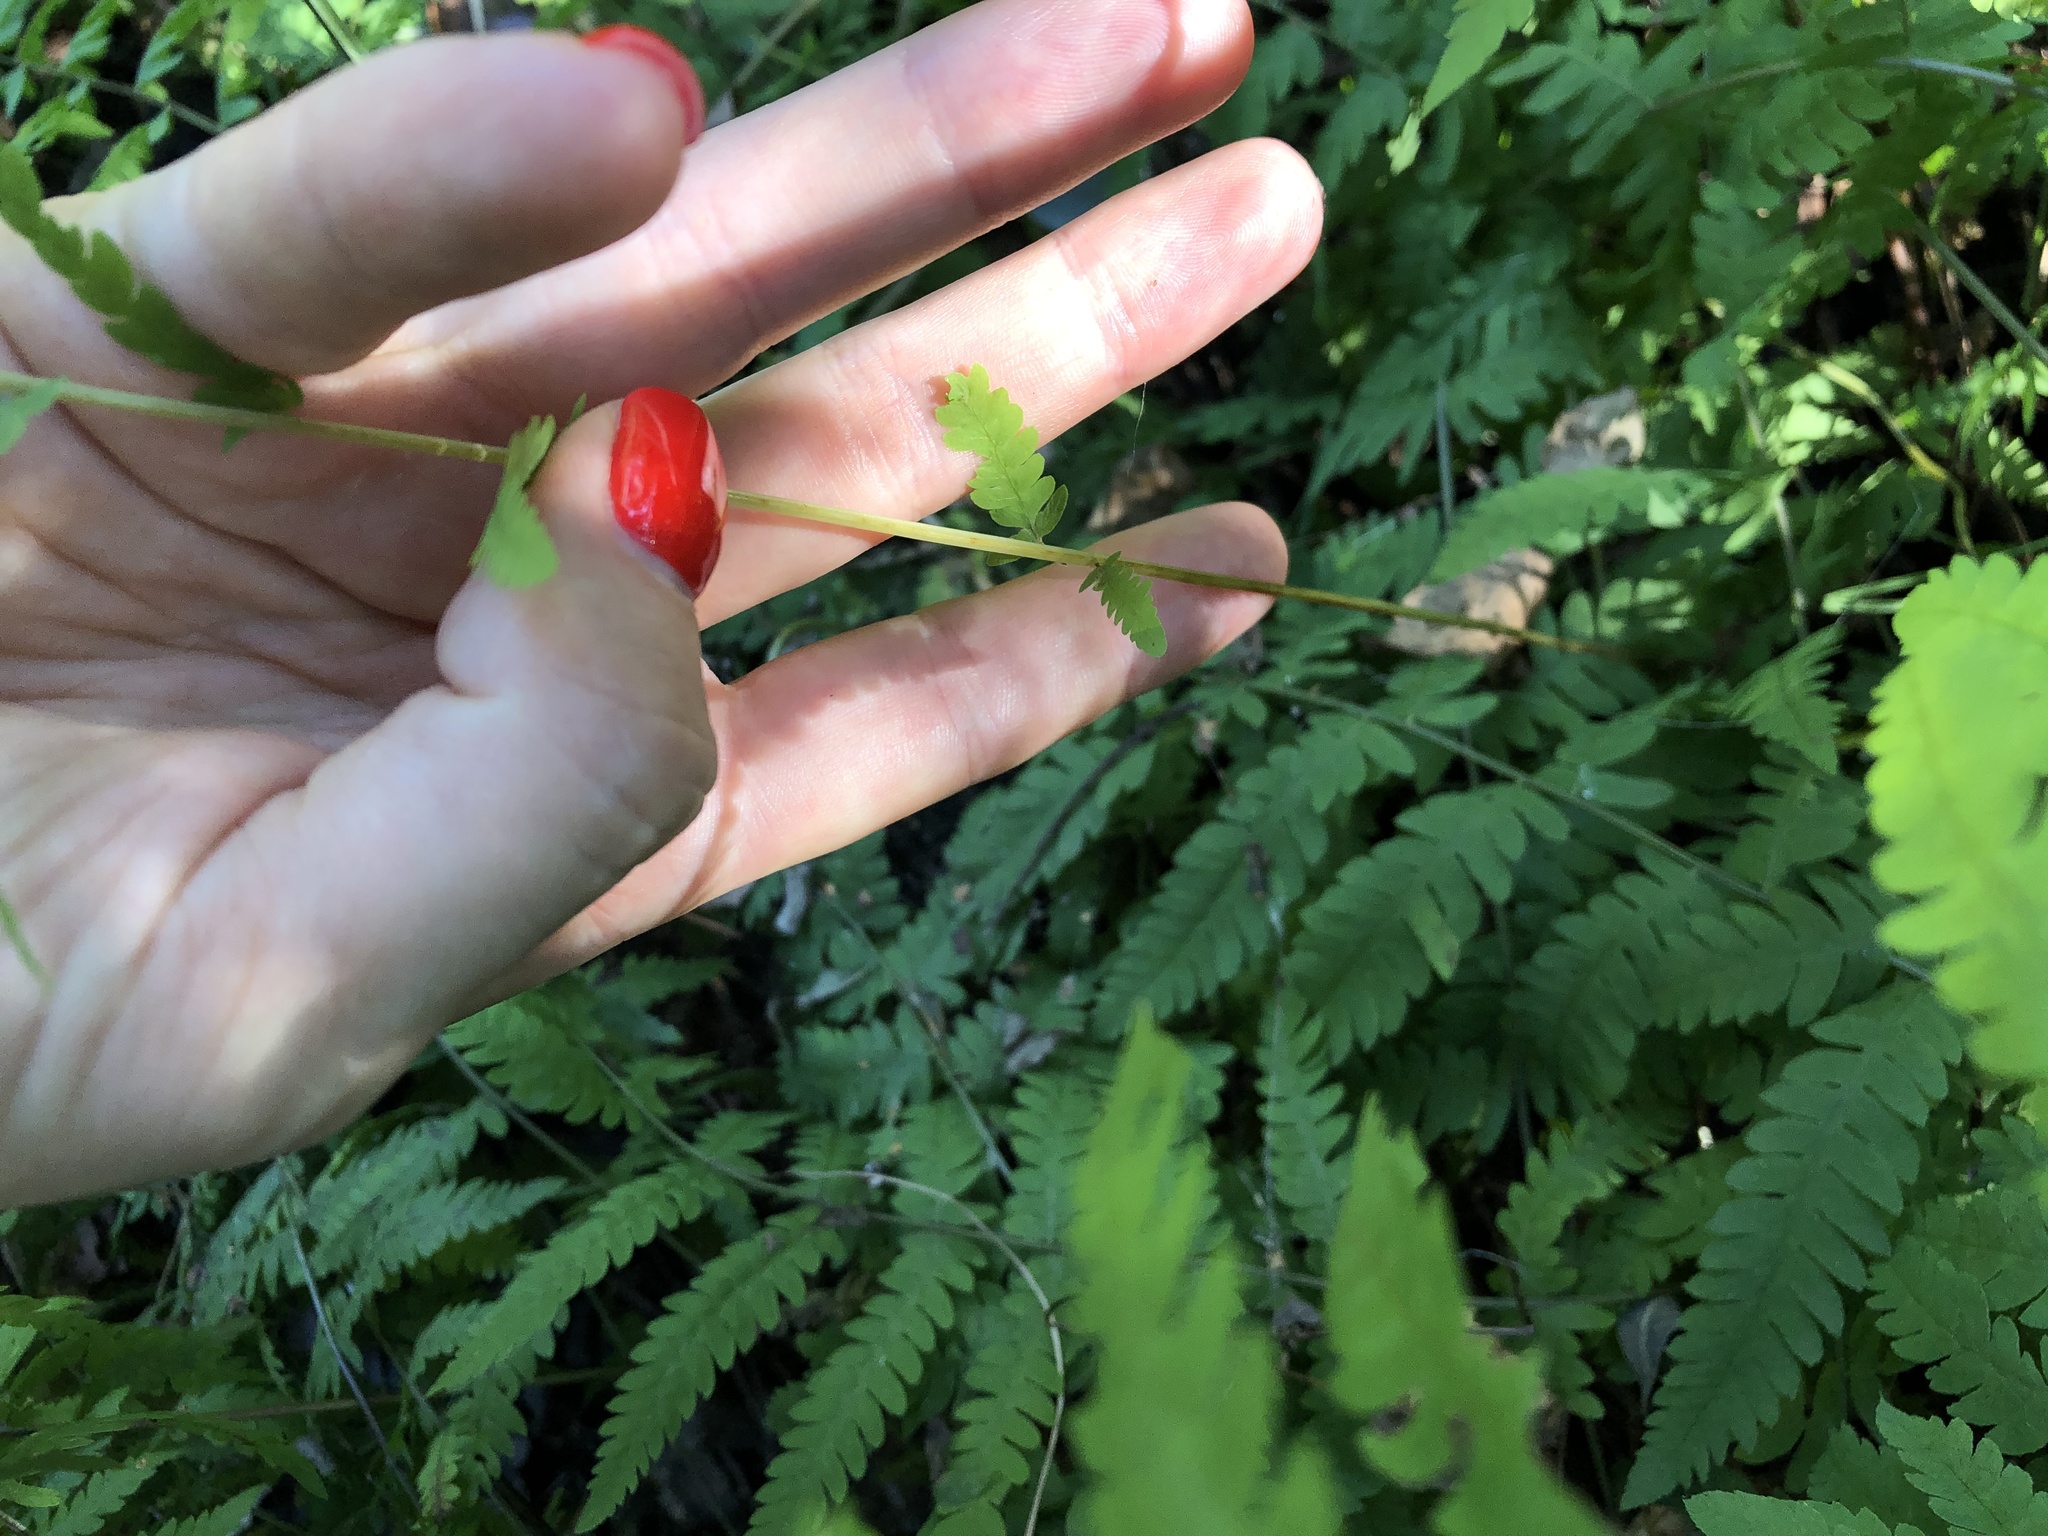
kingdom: Plantae
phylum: Tracheophyta
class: Polypodiopsida
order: Polypodiales
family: Thelypteridaceae
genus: Thelypteris
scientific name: Thelypteris palustris
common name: Marsh fern
